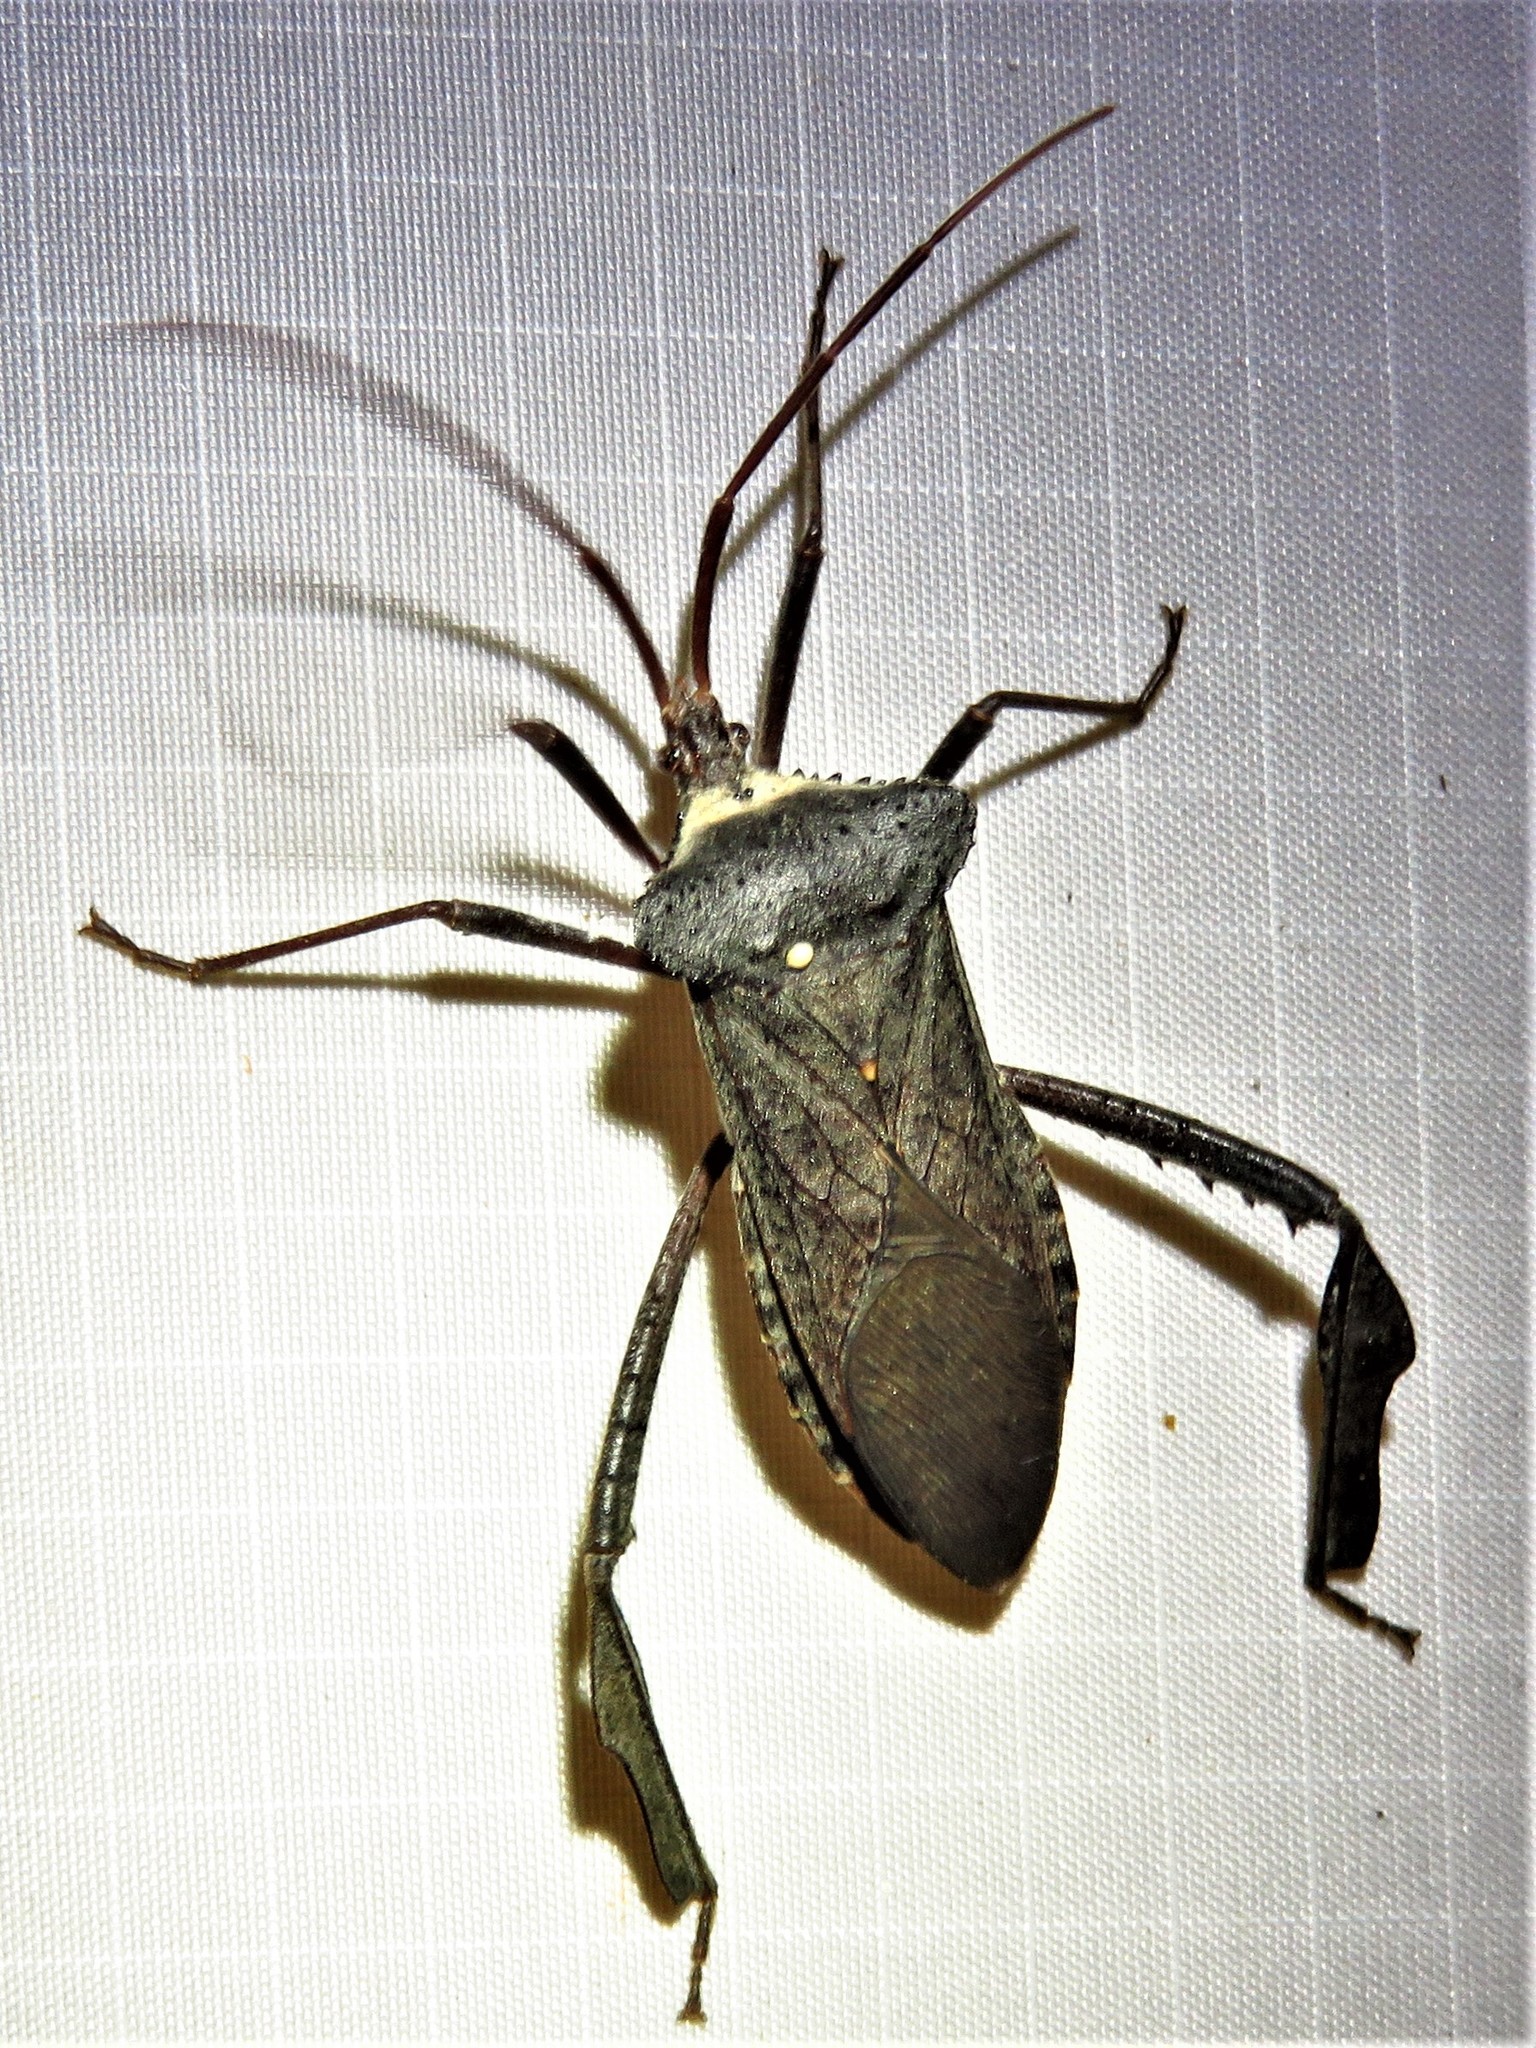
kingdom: Animalia
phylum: Arthropoda
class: Insecta
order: Hemiptera
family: Coreidae
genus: Acanthocephala
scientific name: Acanthocephala declivis
